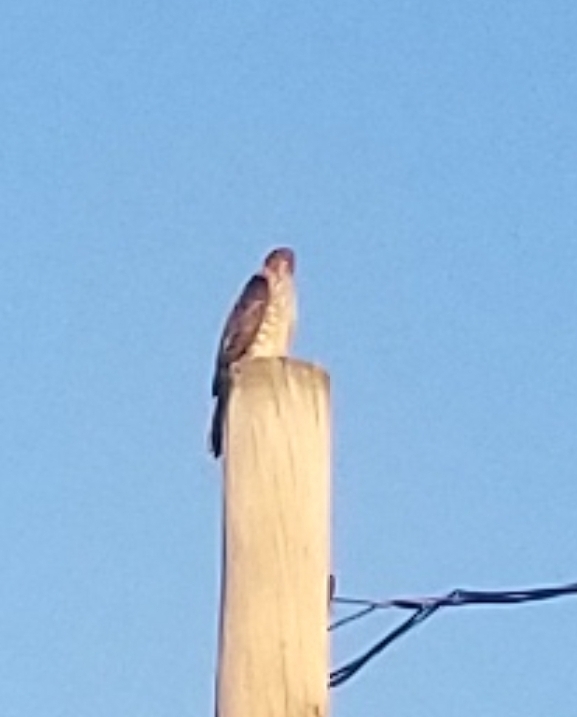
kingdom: Animalia
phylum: Chordata
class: Aves
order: Accipitriformes
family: Accipitridae
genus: Accipiter
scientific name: Accipiter
